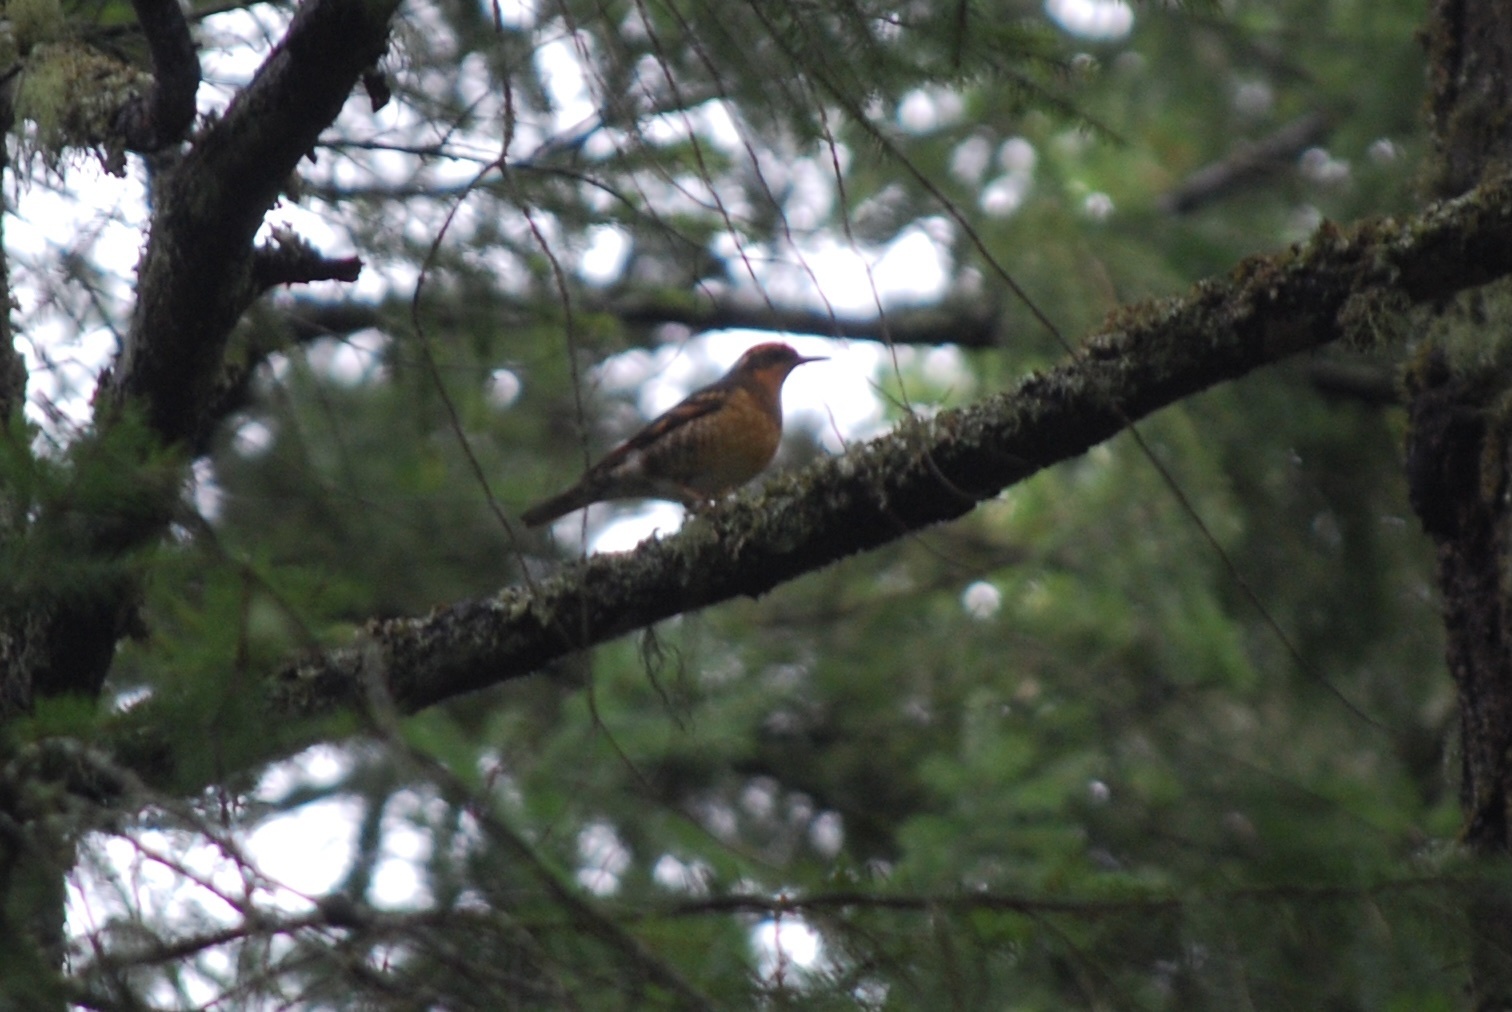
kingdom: Animalia
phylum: Chordata
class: Aves
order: Passeriformes
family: Turdidae
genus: Ixoreus
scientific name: Ixoreus naevius
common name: Varied thrush
